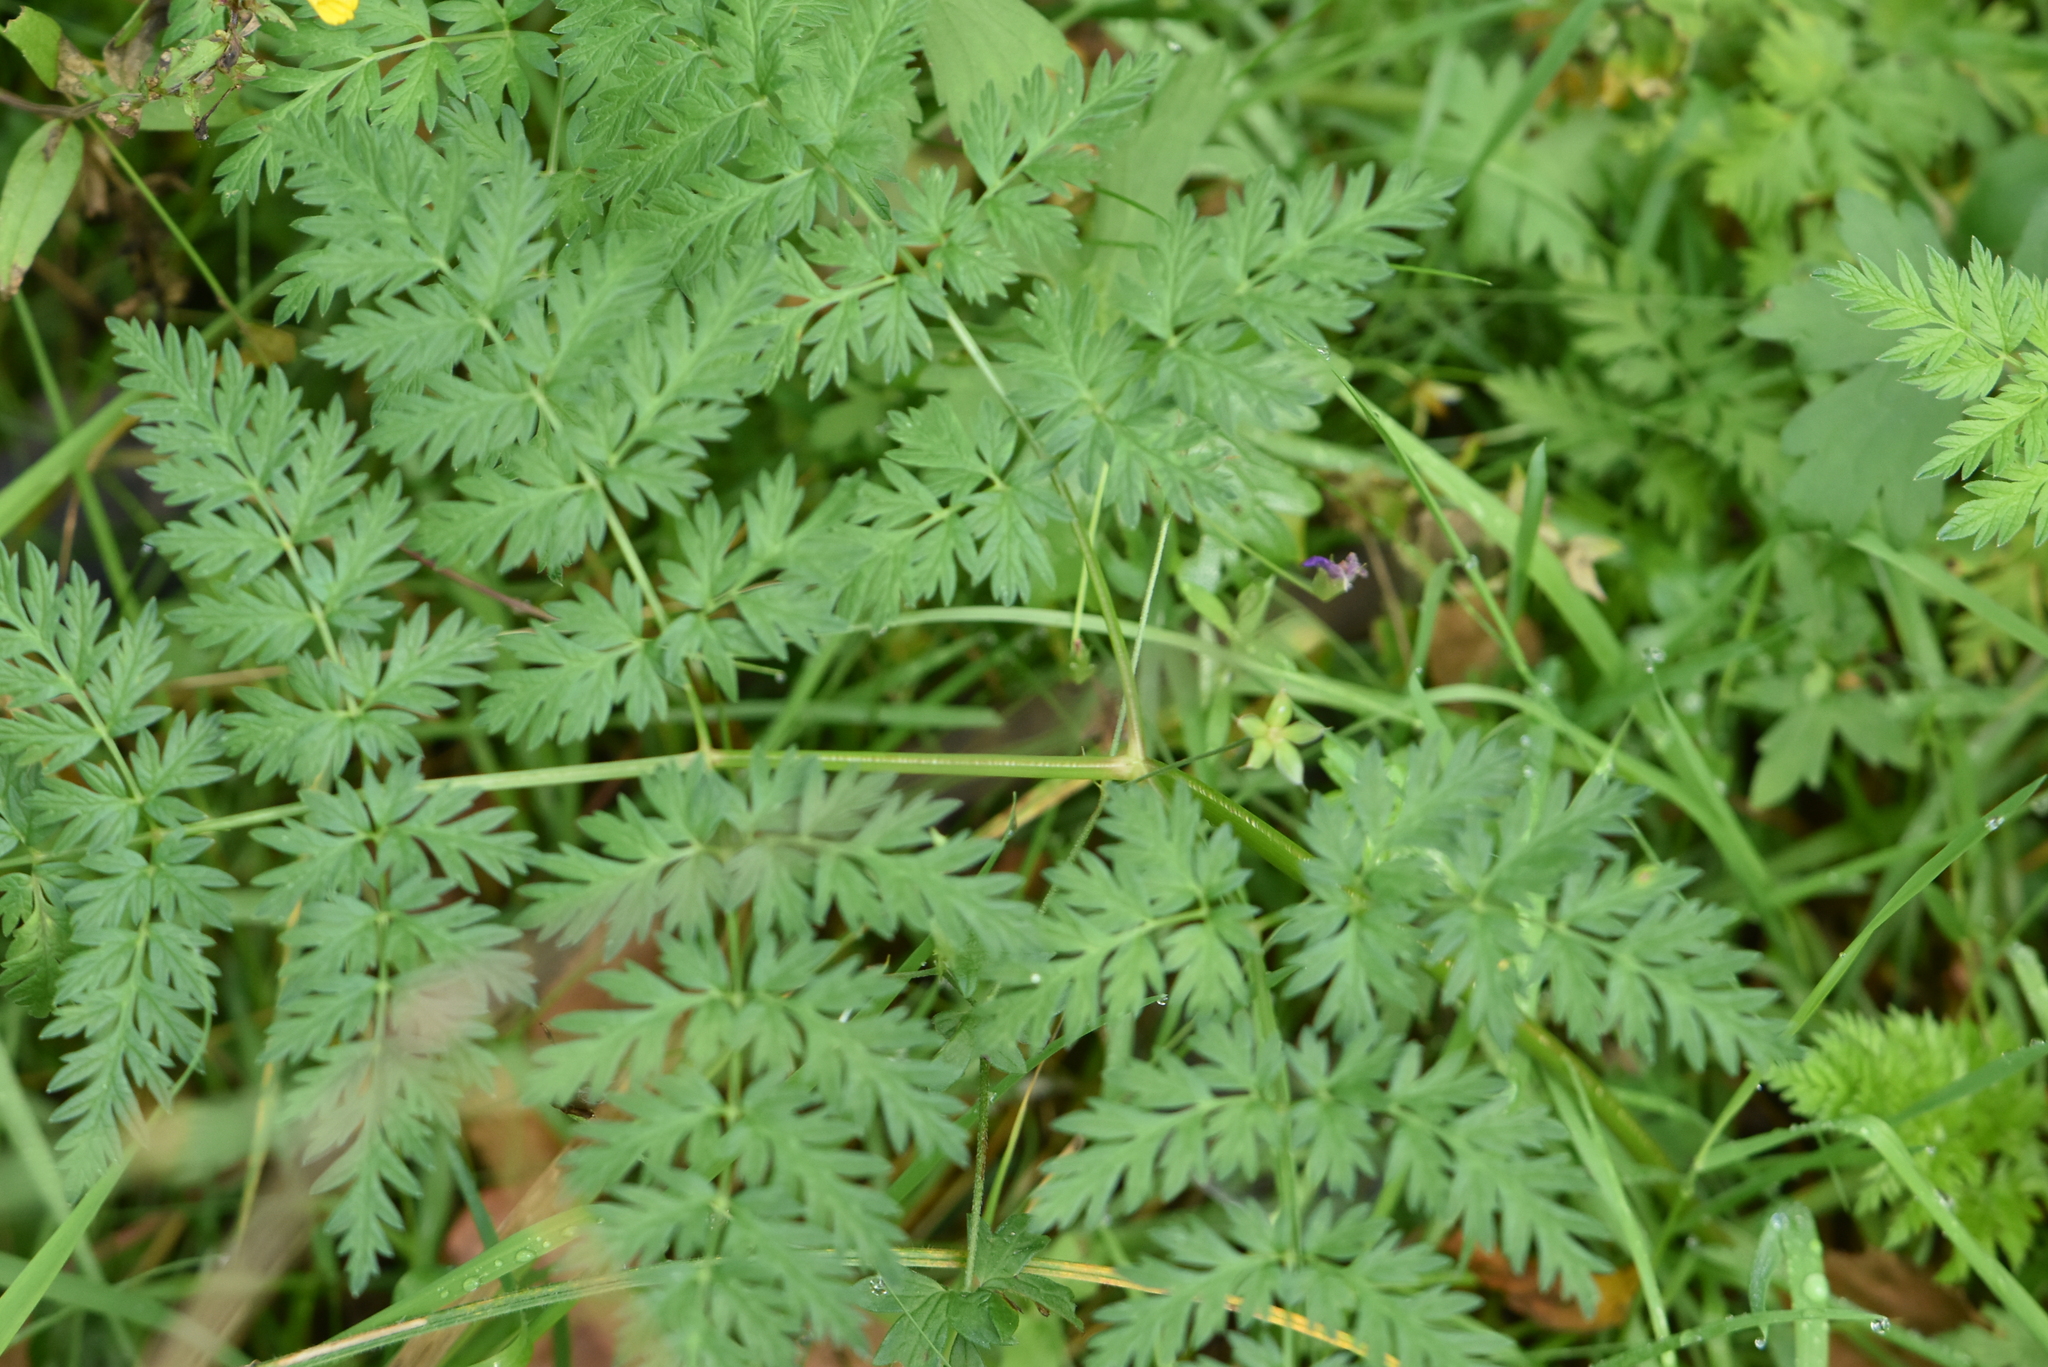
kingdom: Plantae
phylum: Tracheophyta
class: Magnoliopsida
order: Apiales
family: Apiaceae
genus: Anthriscus
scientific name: Anthriscus sylvestris
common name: Cow parsley
